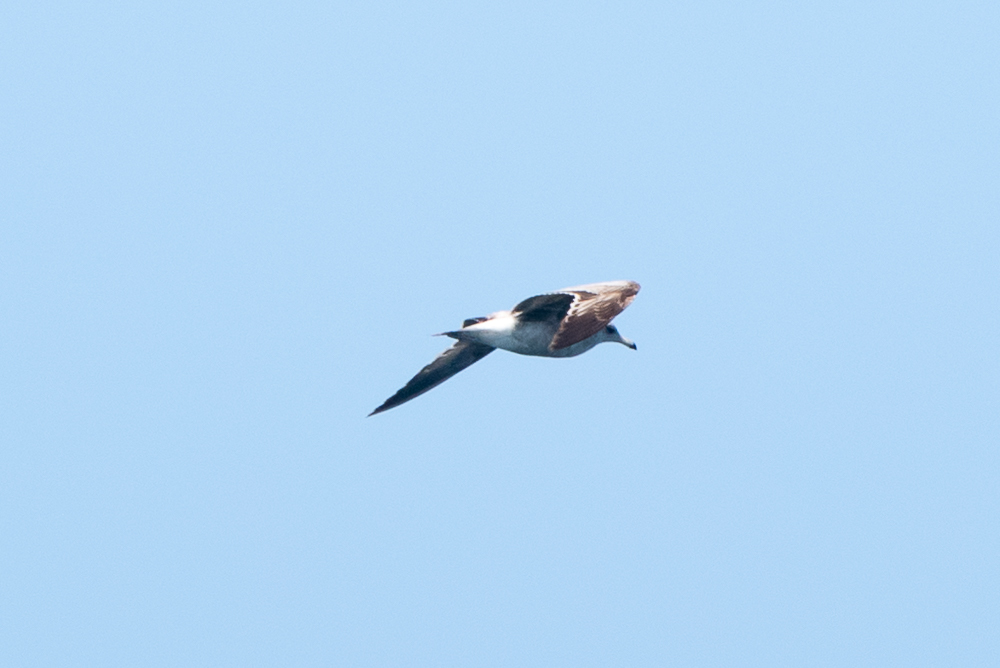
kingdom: Animalia
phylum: Chordata
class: Aves
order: Charadriiformes
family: Laridae
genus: Larus
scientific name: Larus californicus
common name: California gull
